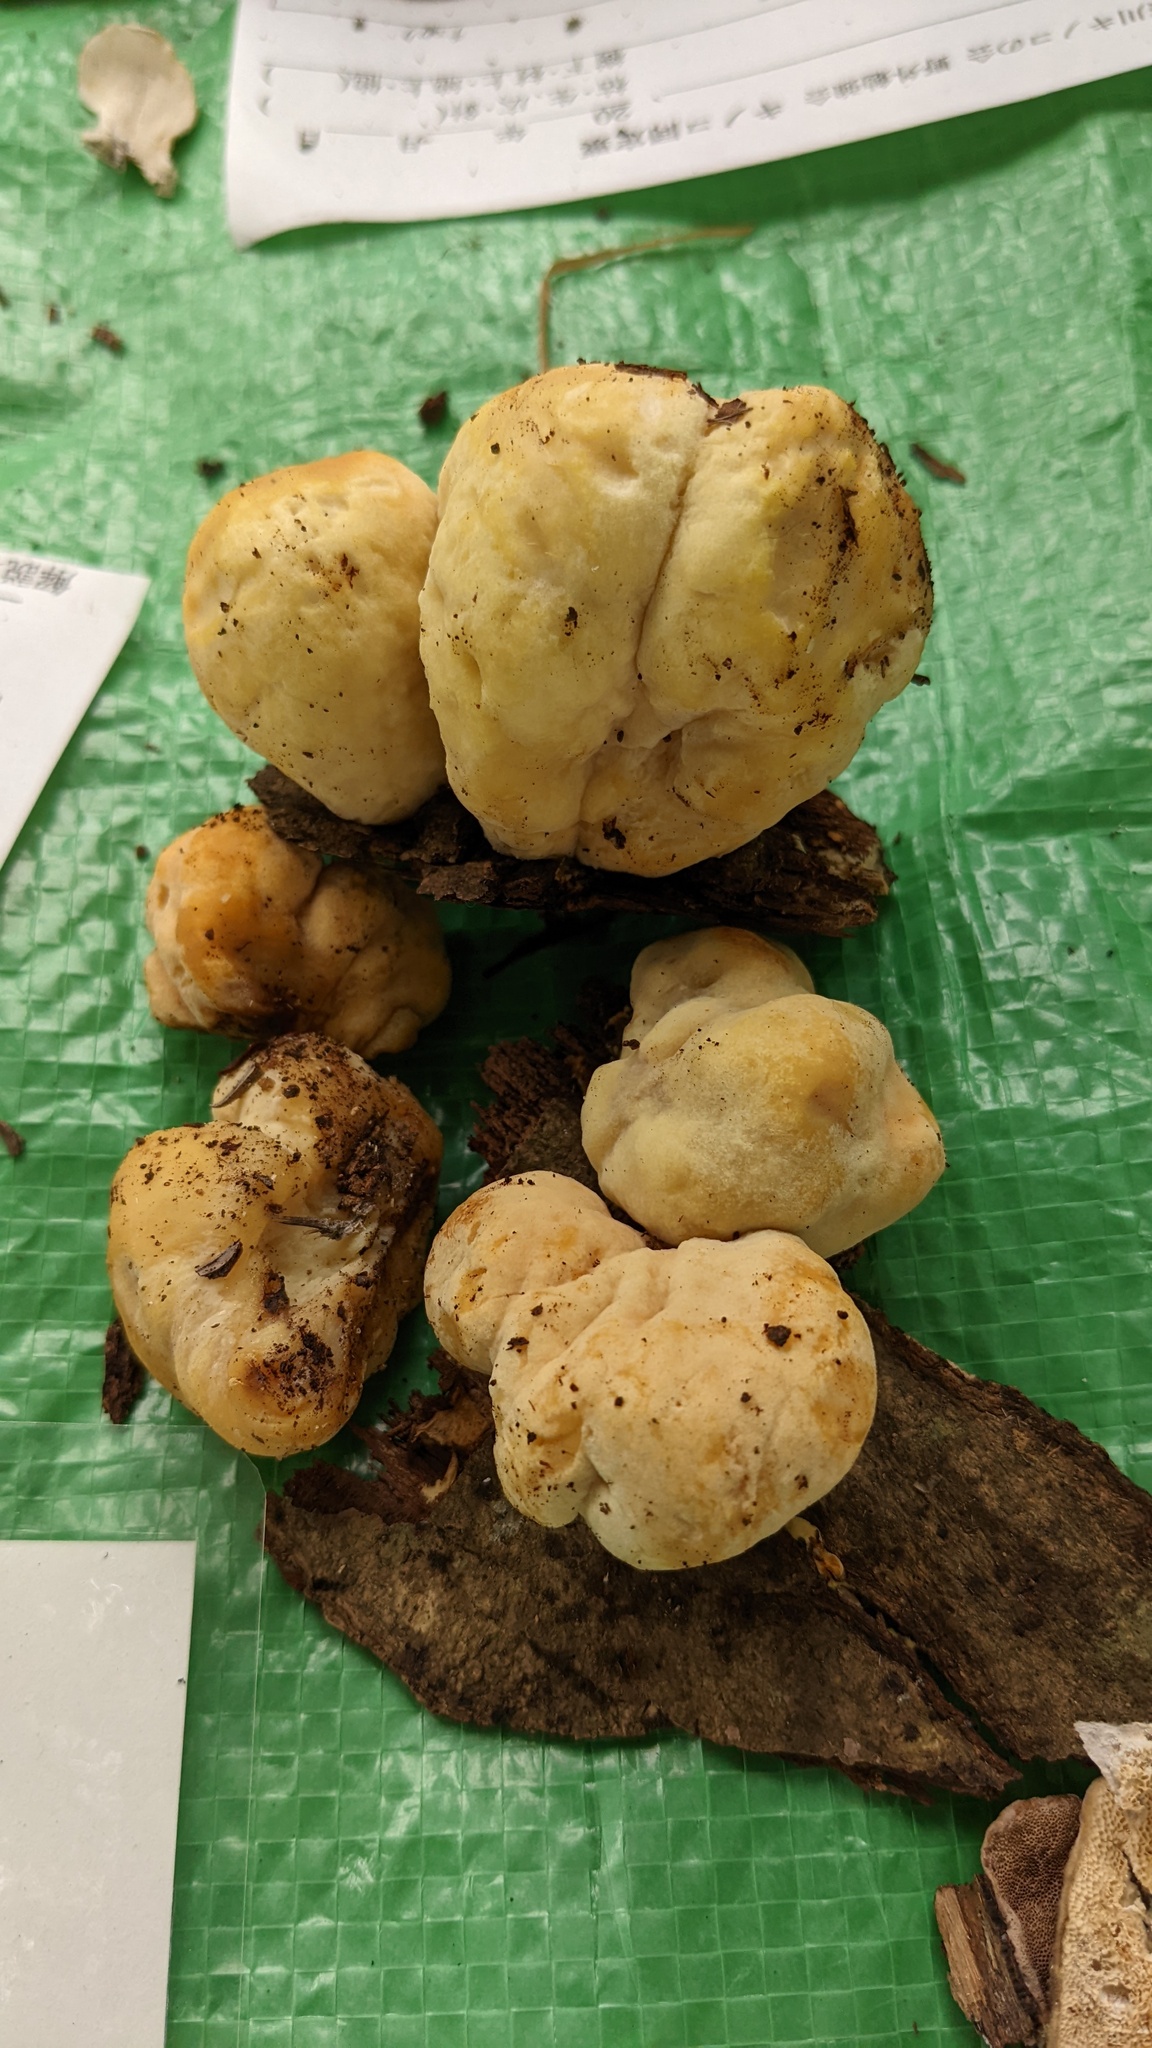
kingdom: Fungi
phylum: Basidiomycota
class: Agaricomycetes
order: Polyporales
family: Laetiporaceae
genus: Laetiporus
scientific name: Laetiporus sulphureus
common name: Chicken of the woods
